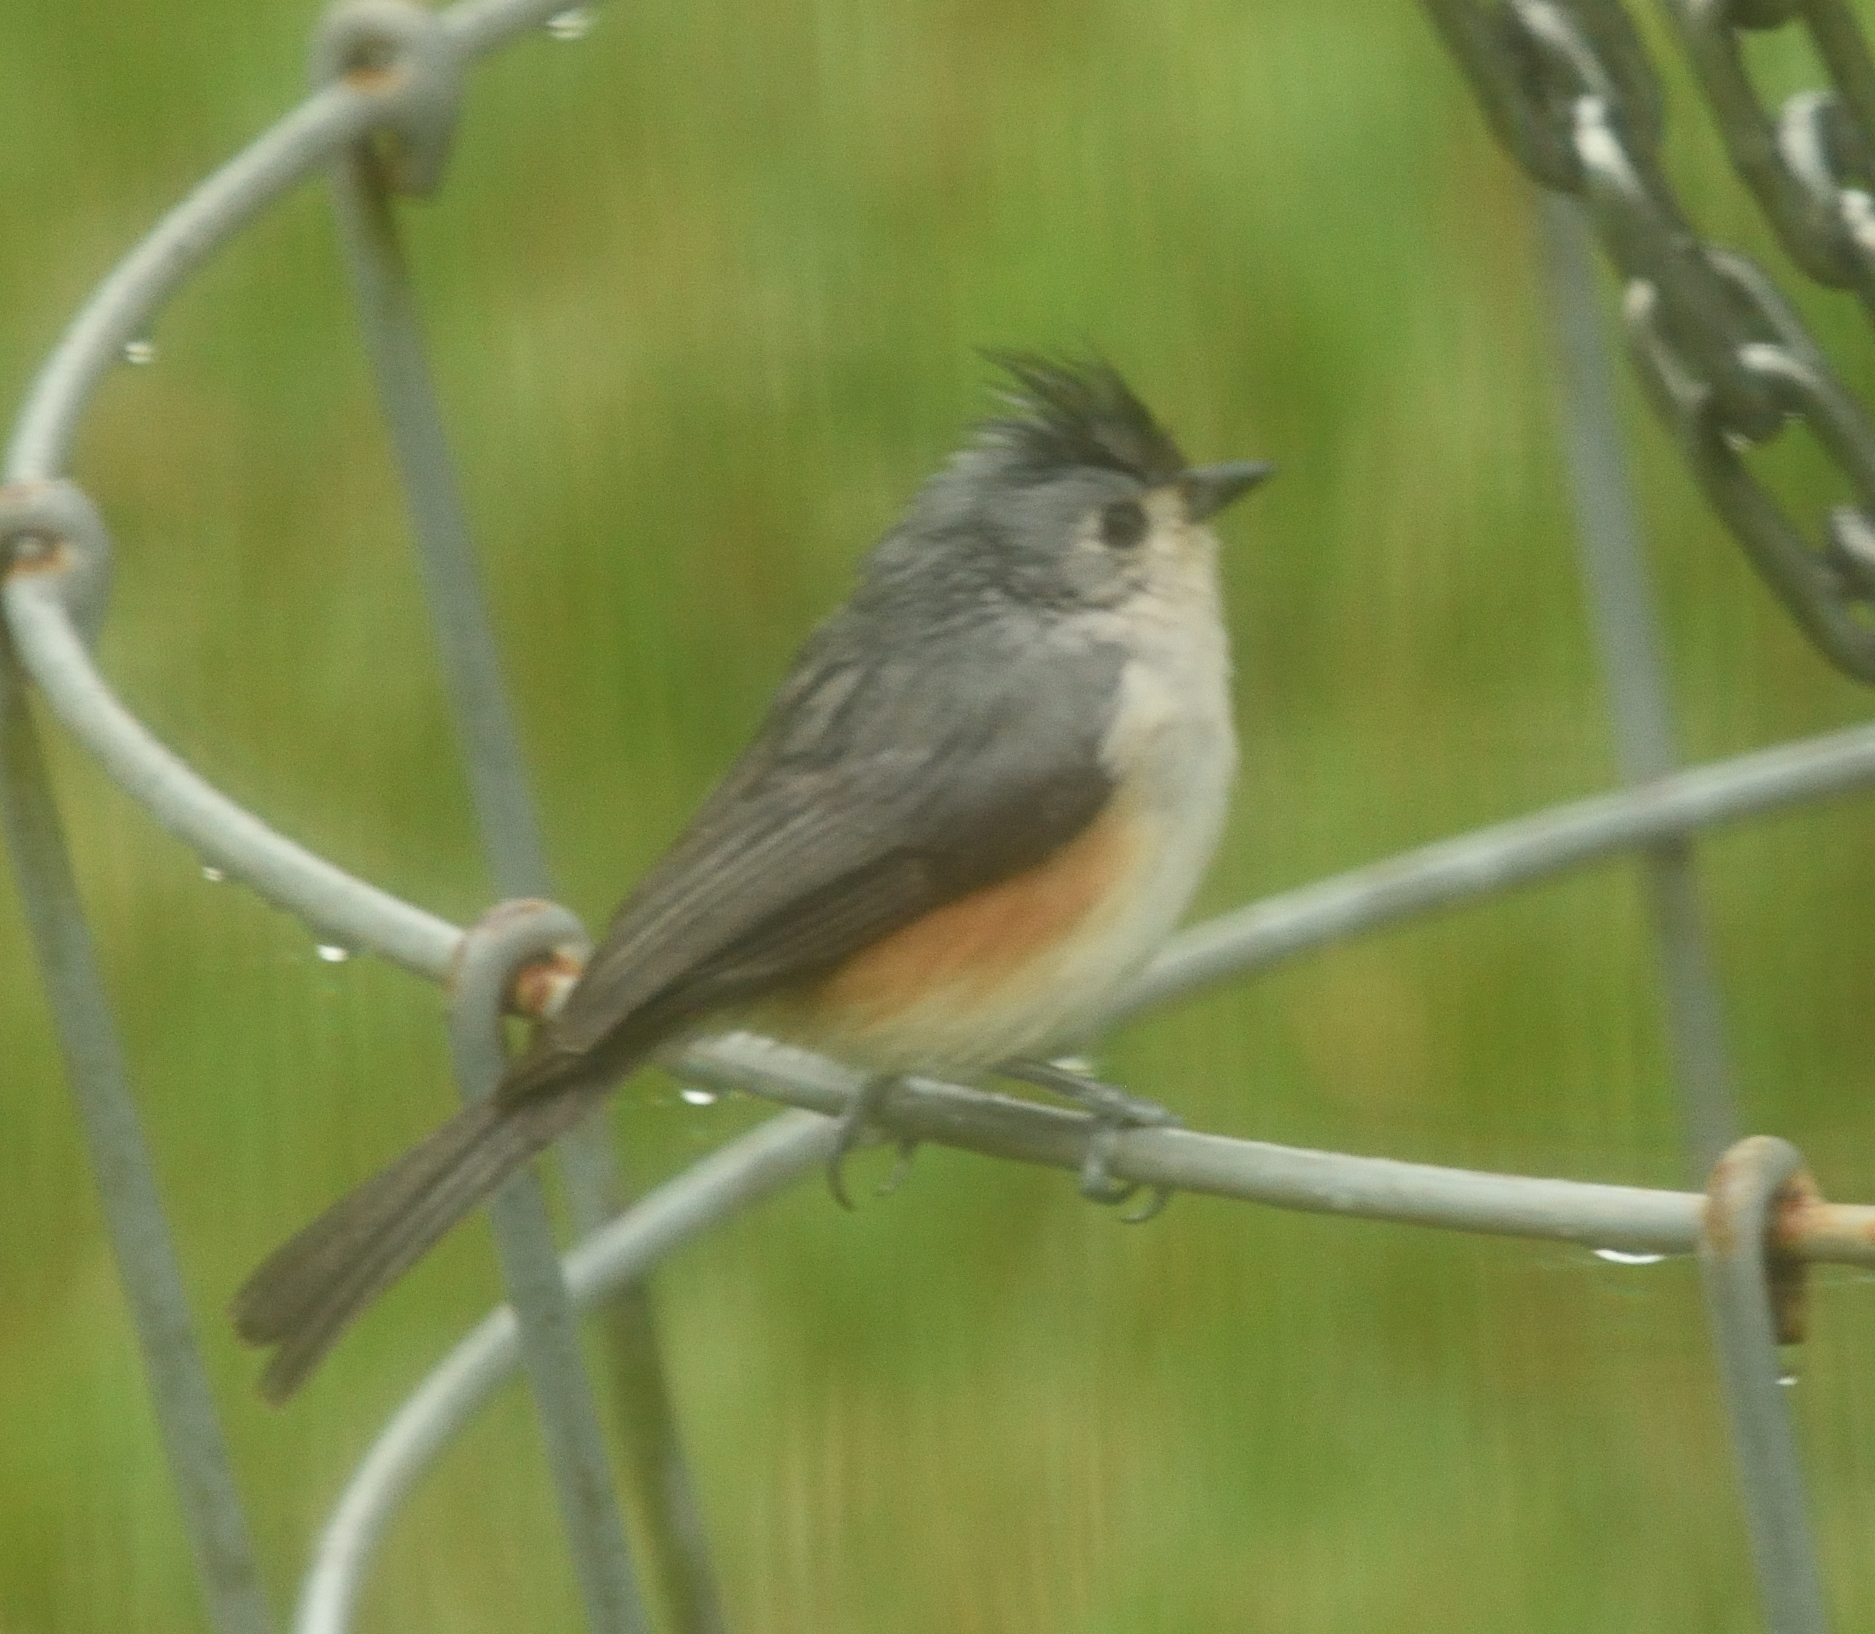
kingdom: Animalia
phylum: Chordata
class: Aves
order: Passeriformes
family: Paridae
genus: Baeolophus
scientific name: Baeolophus bicolor
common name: Tufted titmouse
